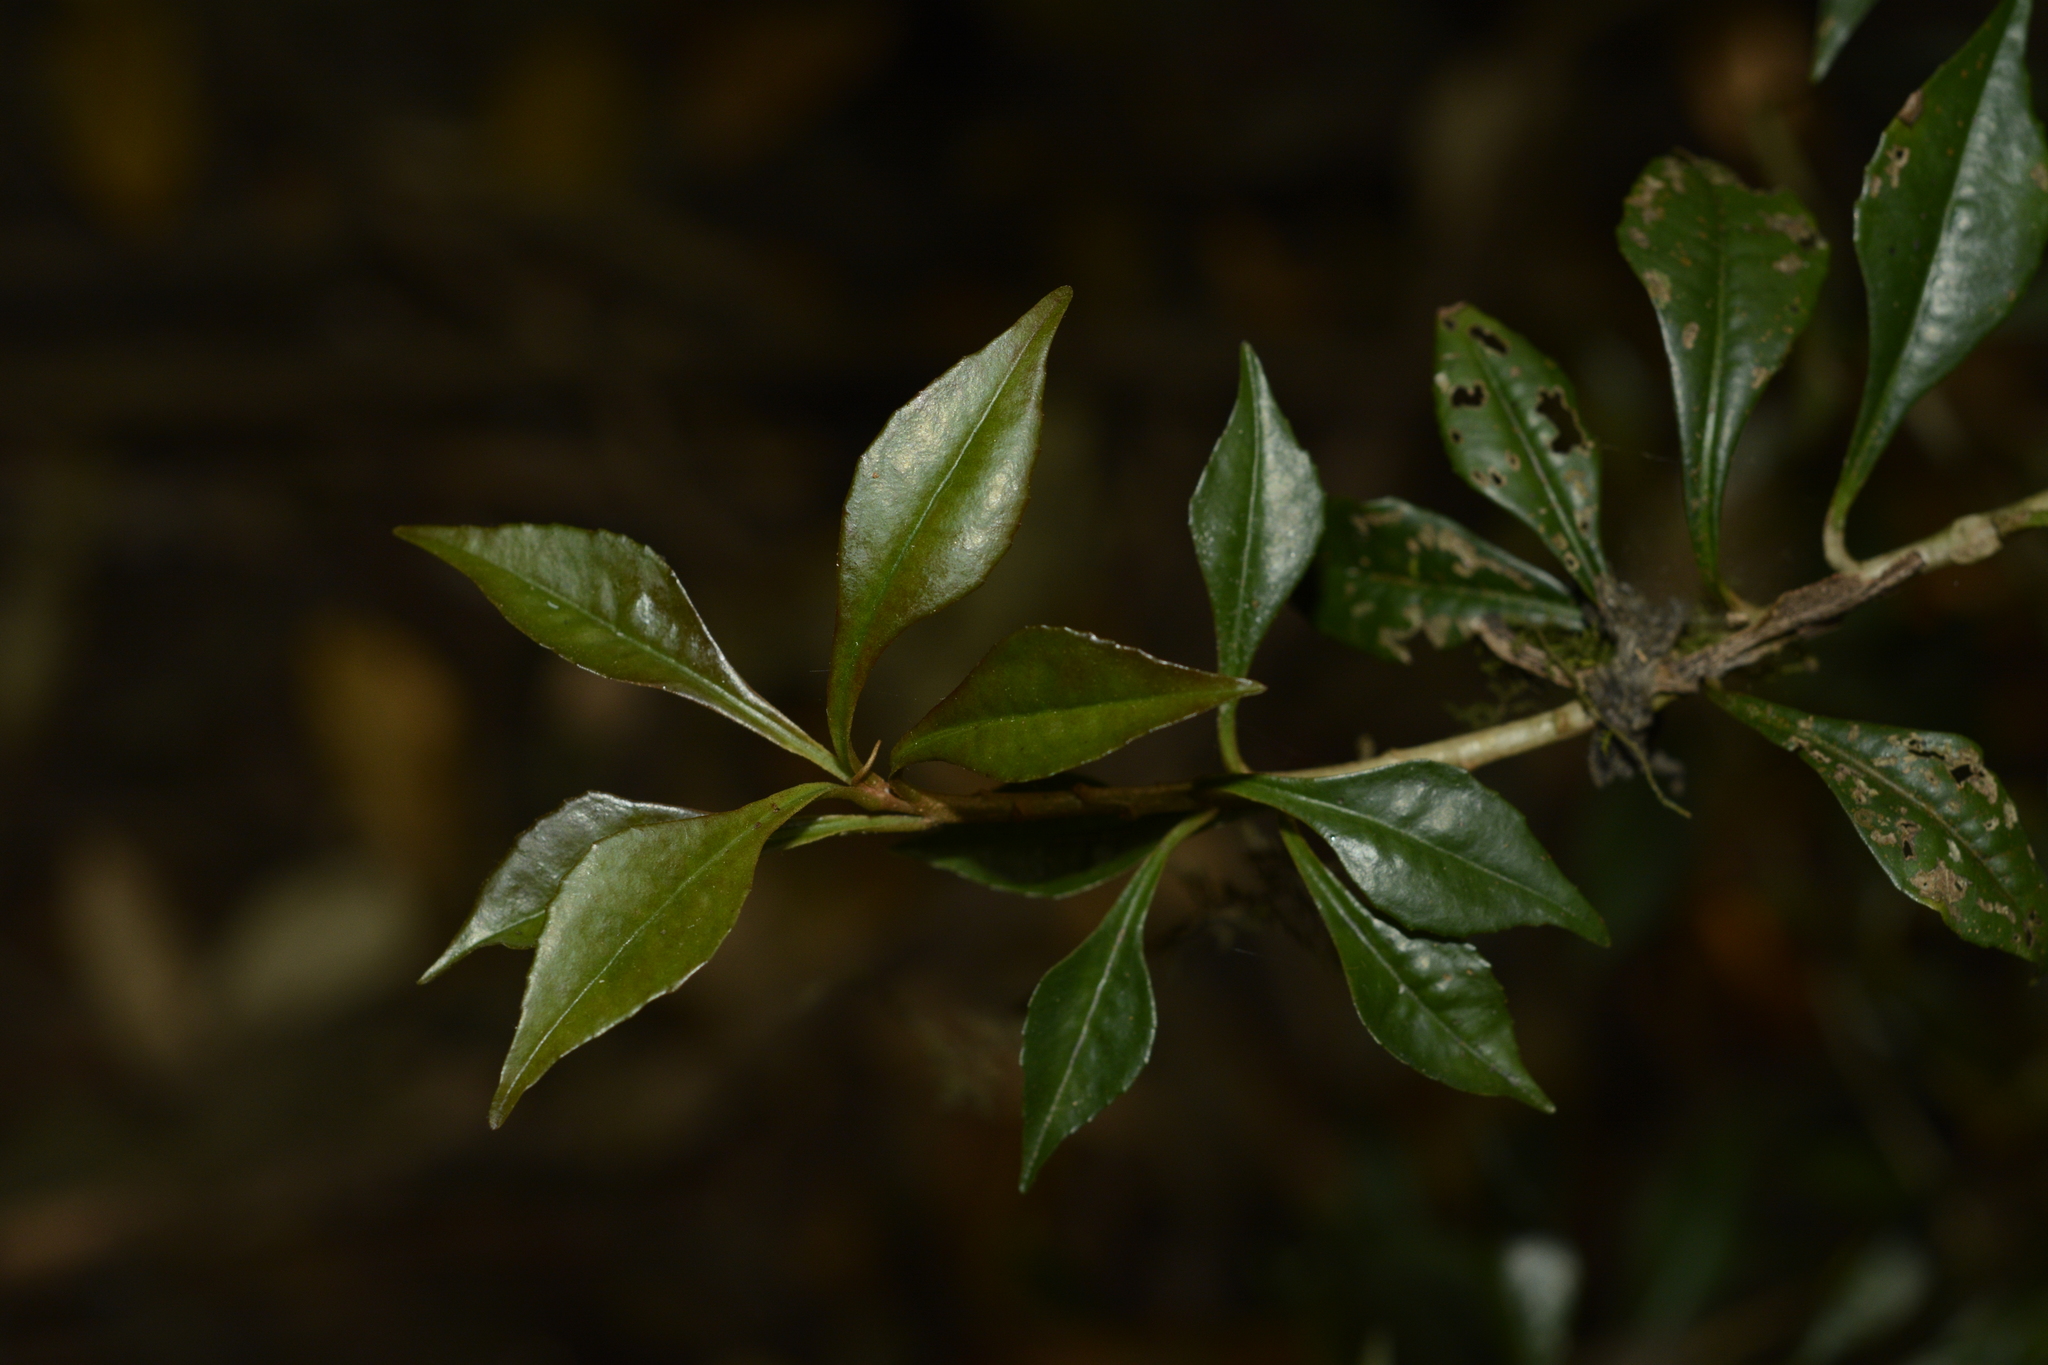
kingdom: Plantae
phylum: Tracheophyta
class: Magnoliopsida
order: Ericales
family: Primulaceae
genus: Ardisia
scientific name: Ardisia pauciflora
